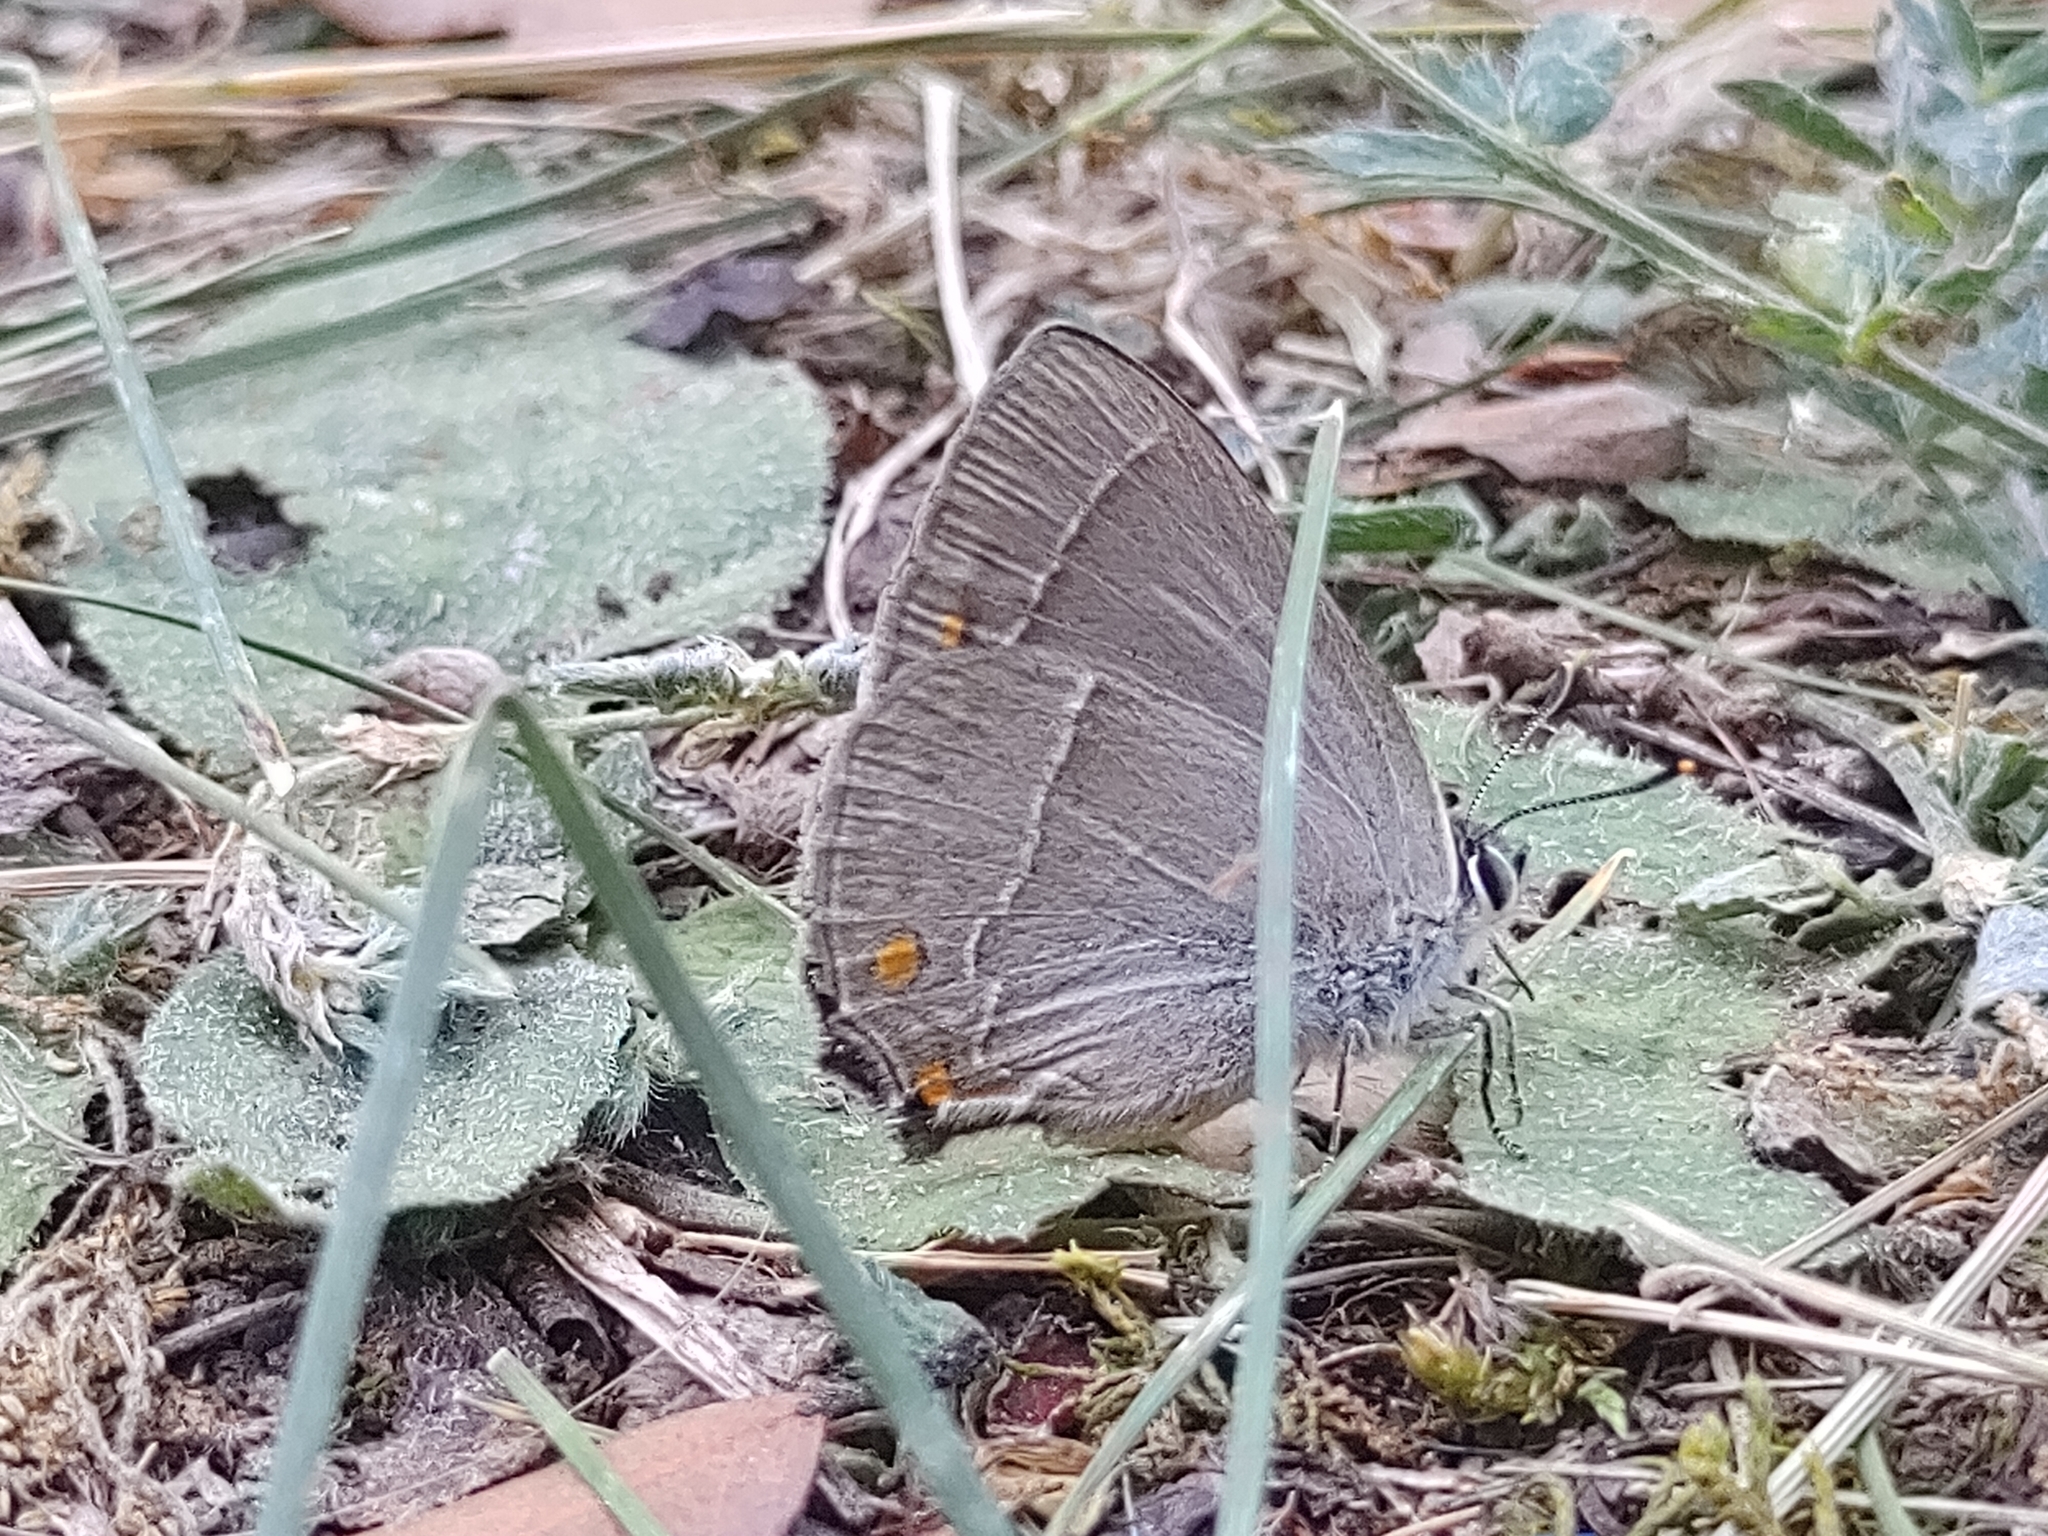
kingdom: Animalia
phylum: Arthropoda
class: Insecta
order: Lepidoptera
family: Lycaenidae
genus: Quercusia
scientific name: Quercusia quercus
